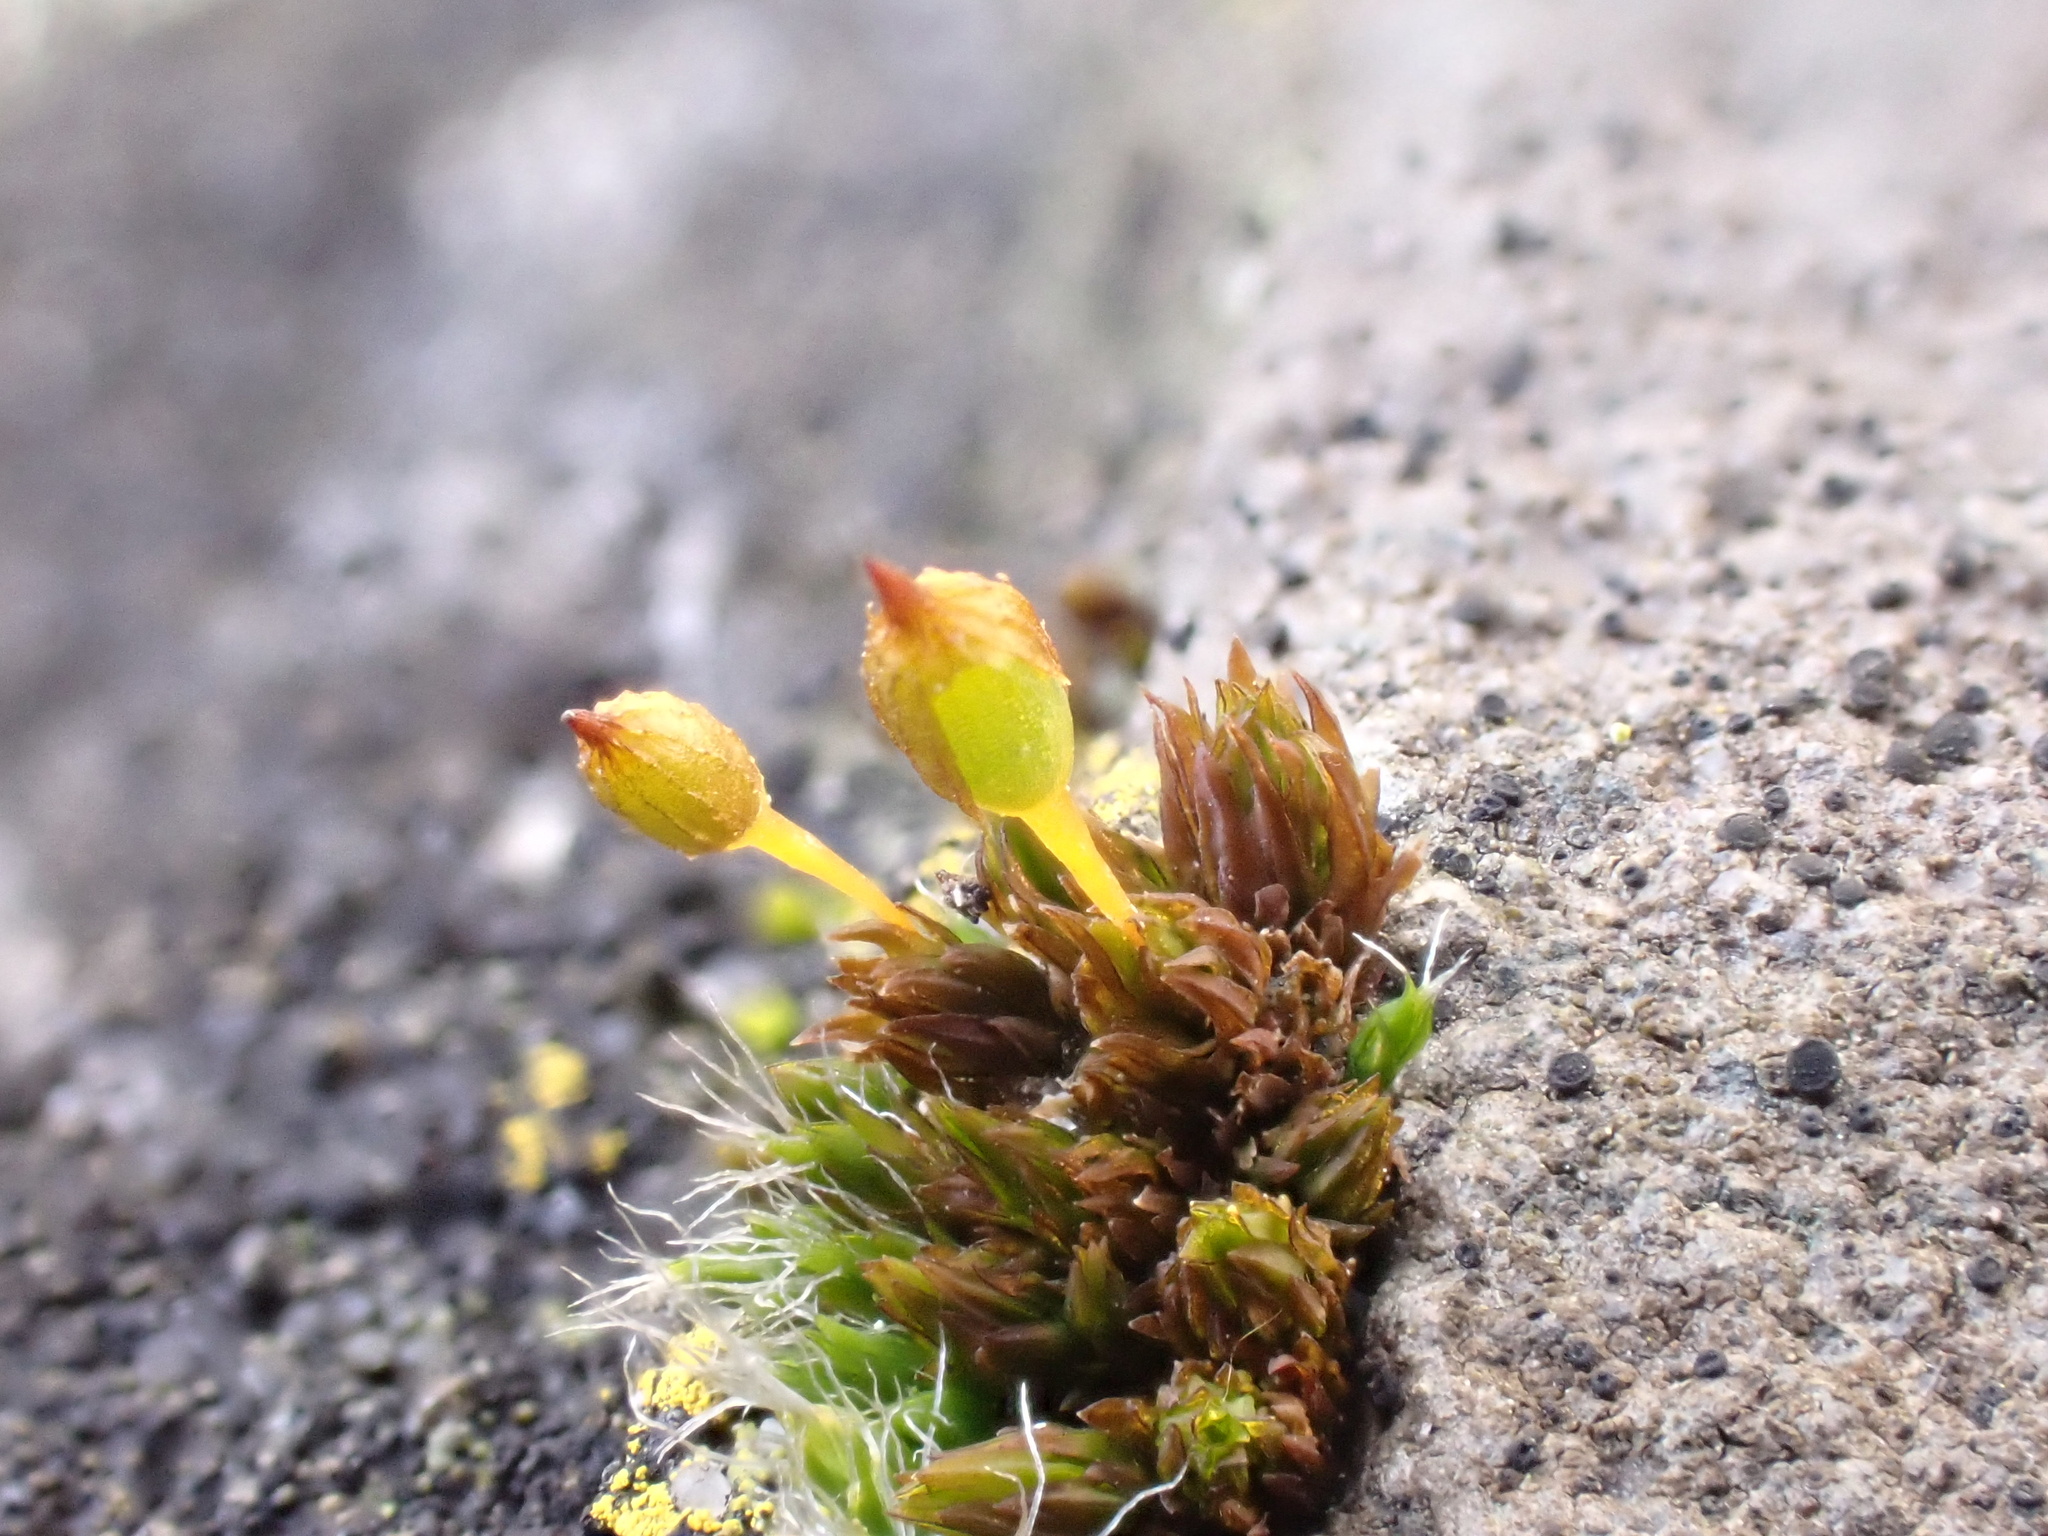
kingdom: Plantae
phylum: Bryophyta
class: Bryopsida
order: Orthotrichales
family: Orthotrichaceae
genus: Orthotrichum
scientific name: Orthotrichum anomalum
